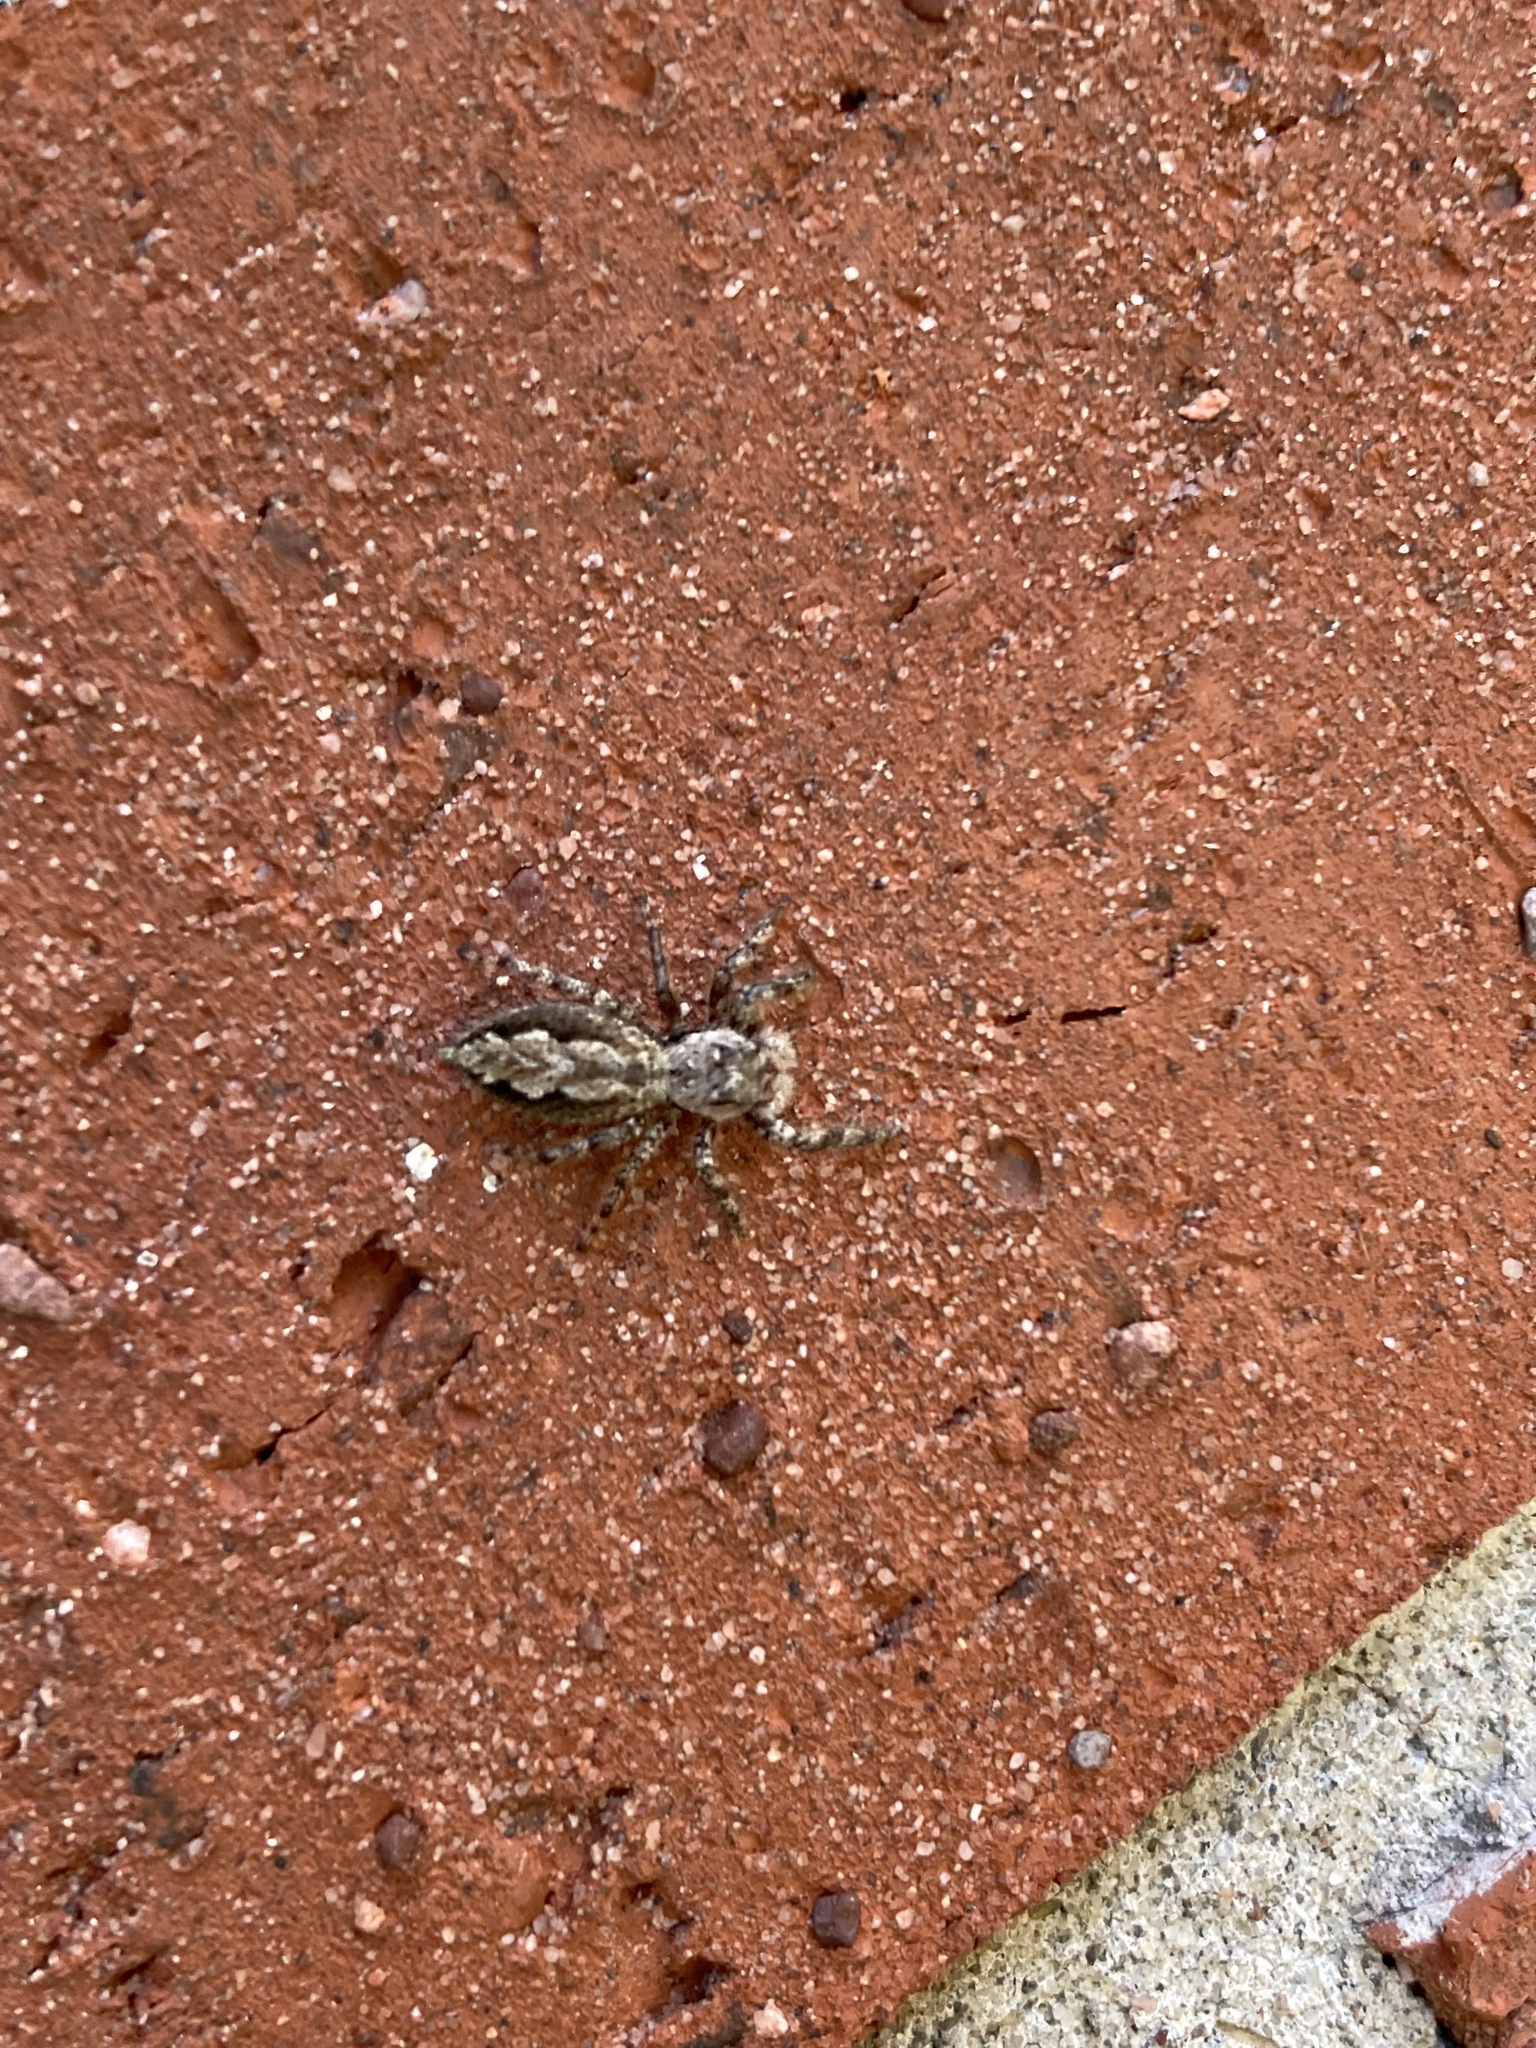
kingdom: Animalia
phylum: Arthropoda
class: Arachnida
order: Araneae
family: Salticidae
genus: Platycryptus
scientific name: Platycryptus undatus
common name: Tan jumping spider
